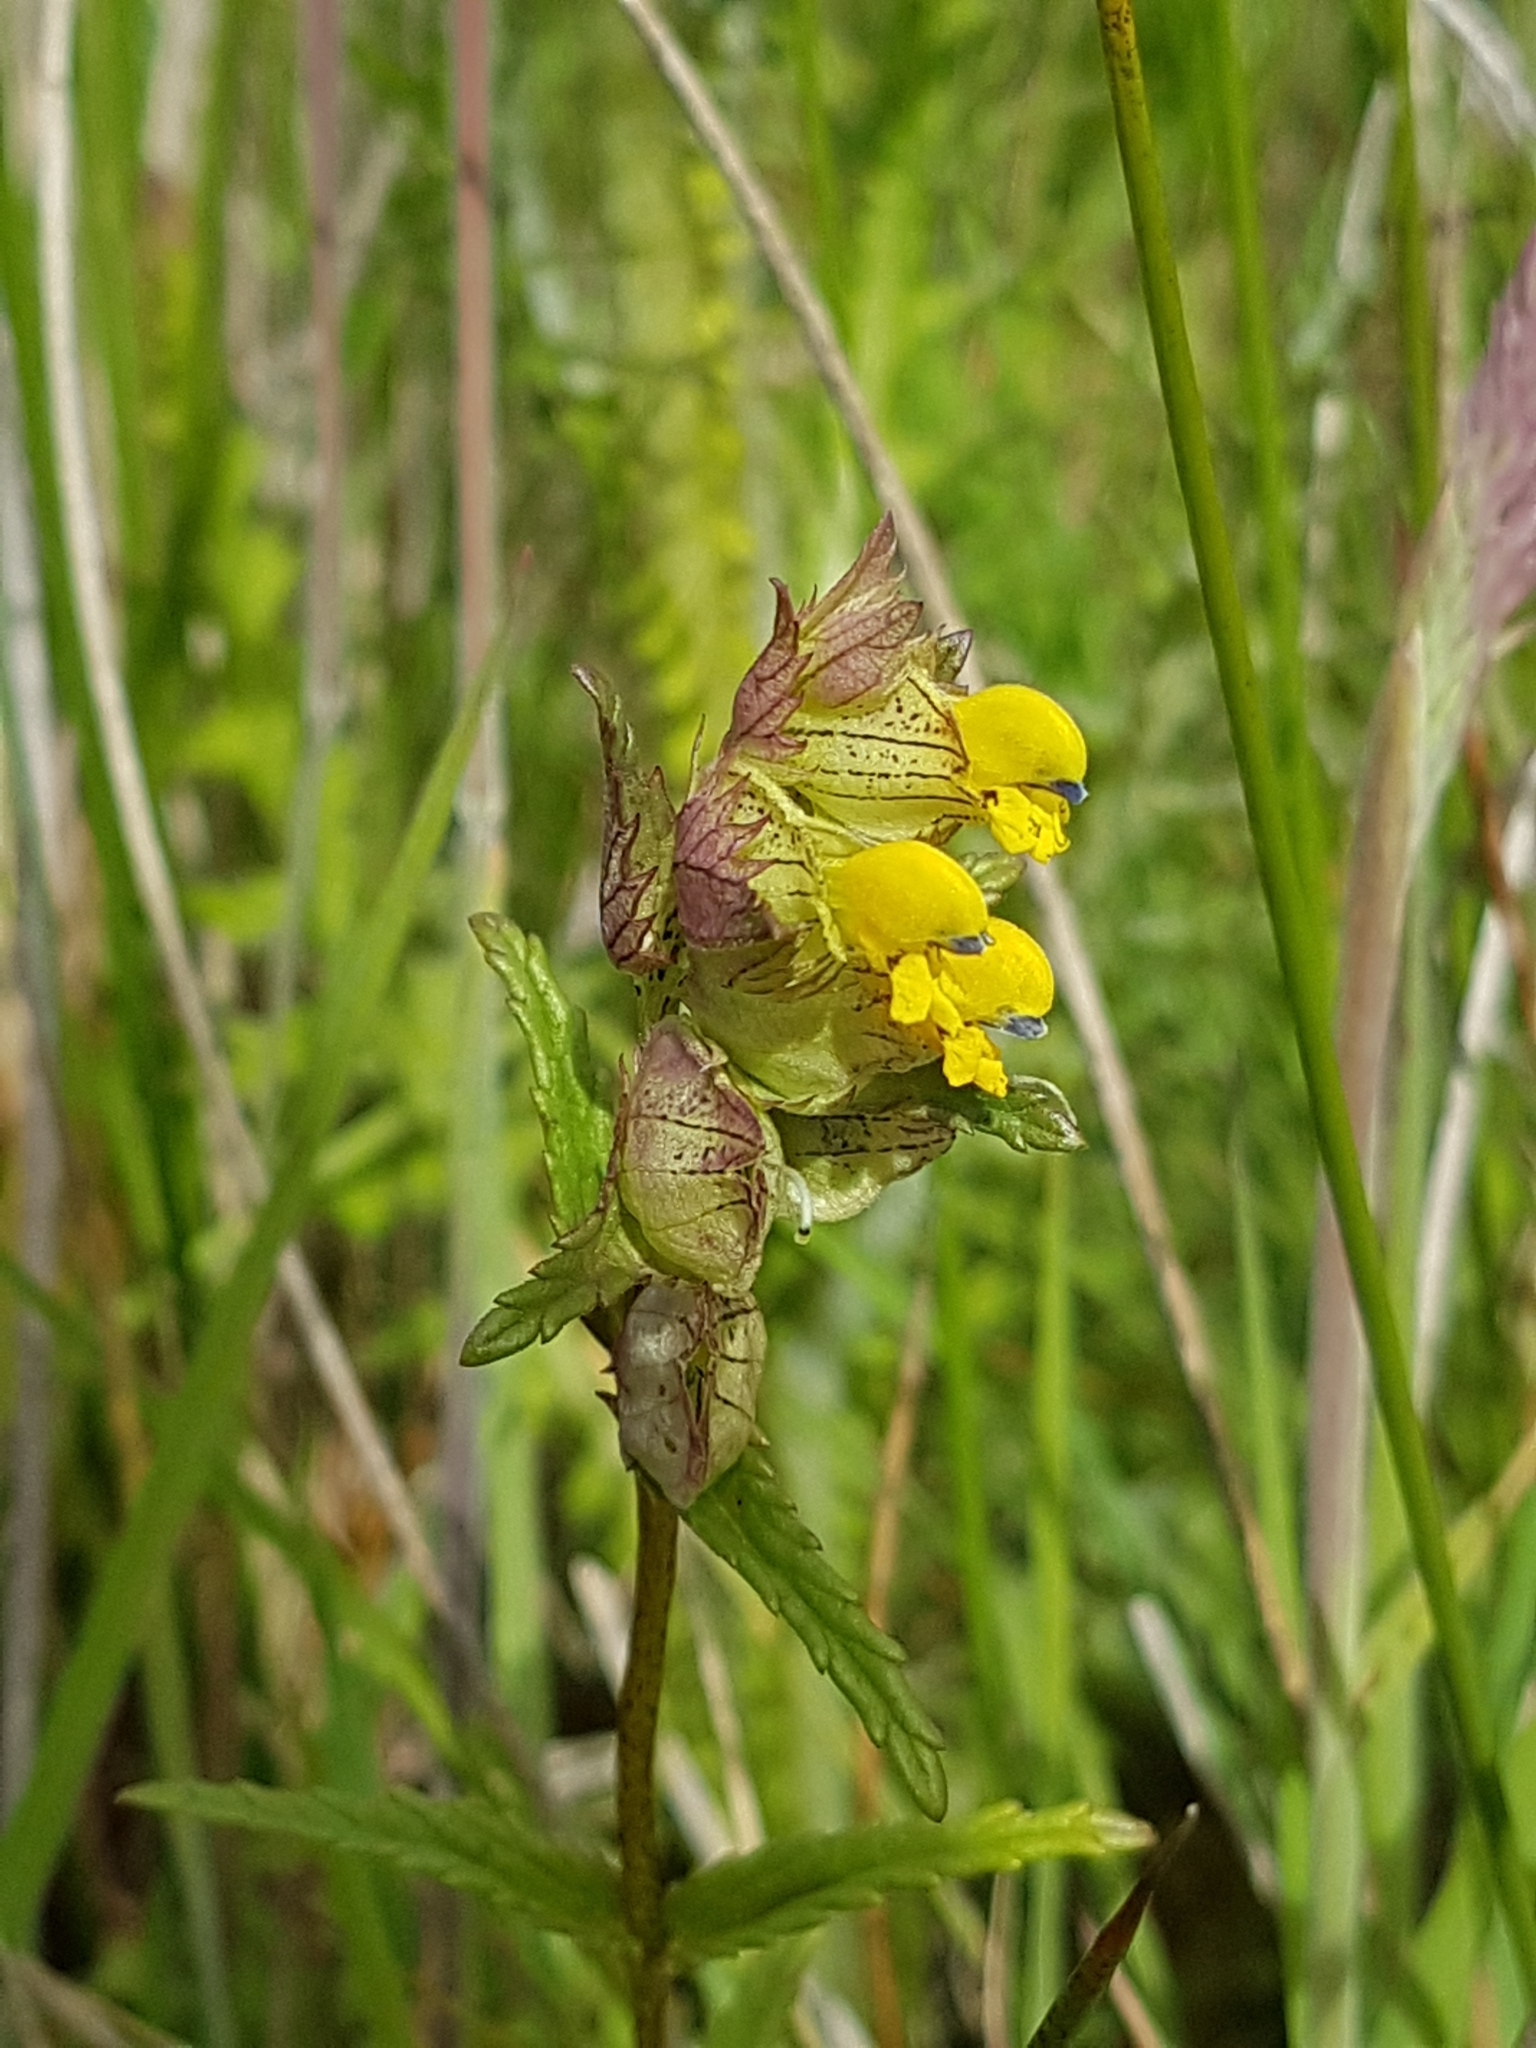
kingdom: Plantae
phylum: Tracheophyta
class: Magnoliopsida
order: Lamiales
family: Orobanchaceae
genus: Rhinanthus
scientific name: Rhinanthus minor
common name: Yellow-rattle
